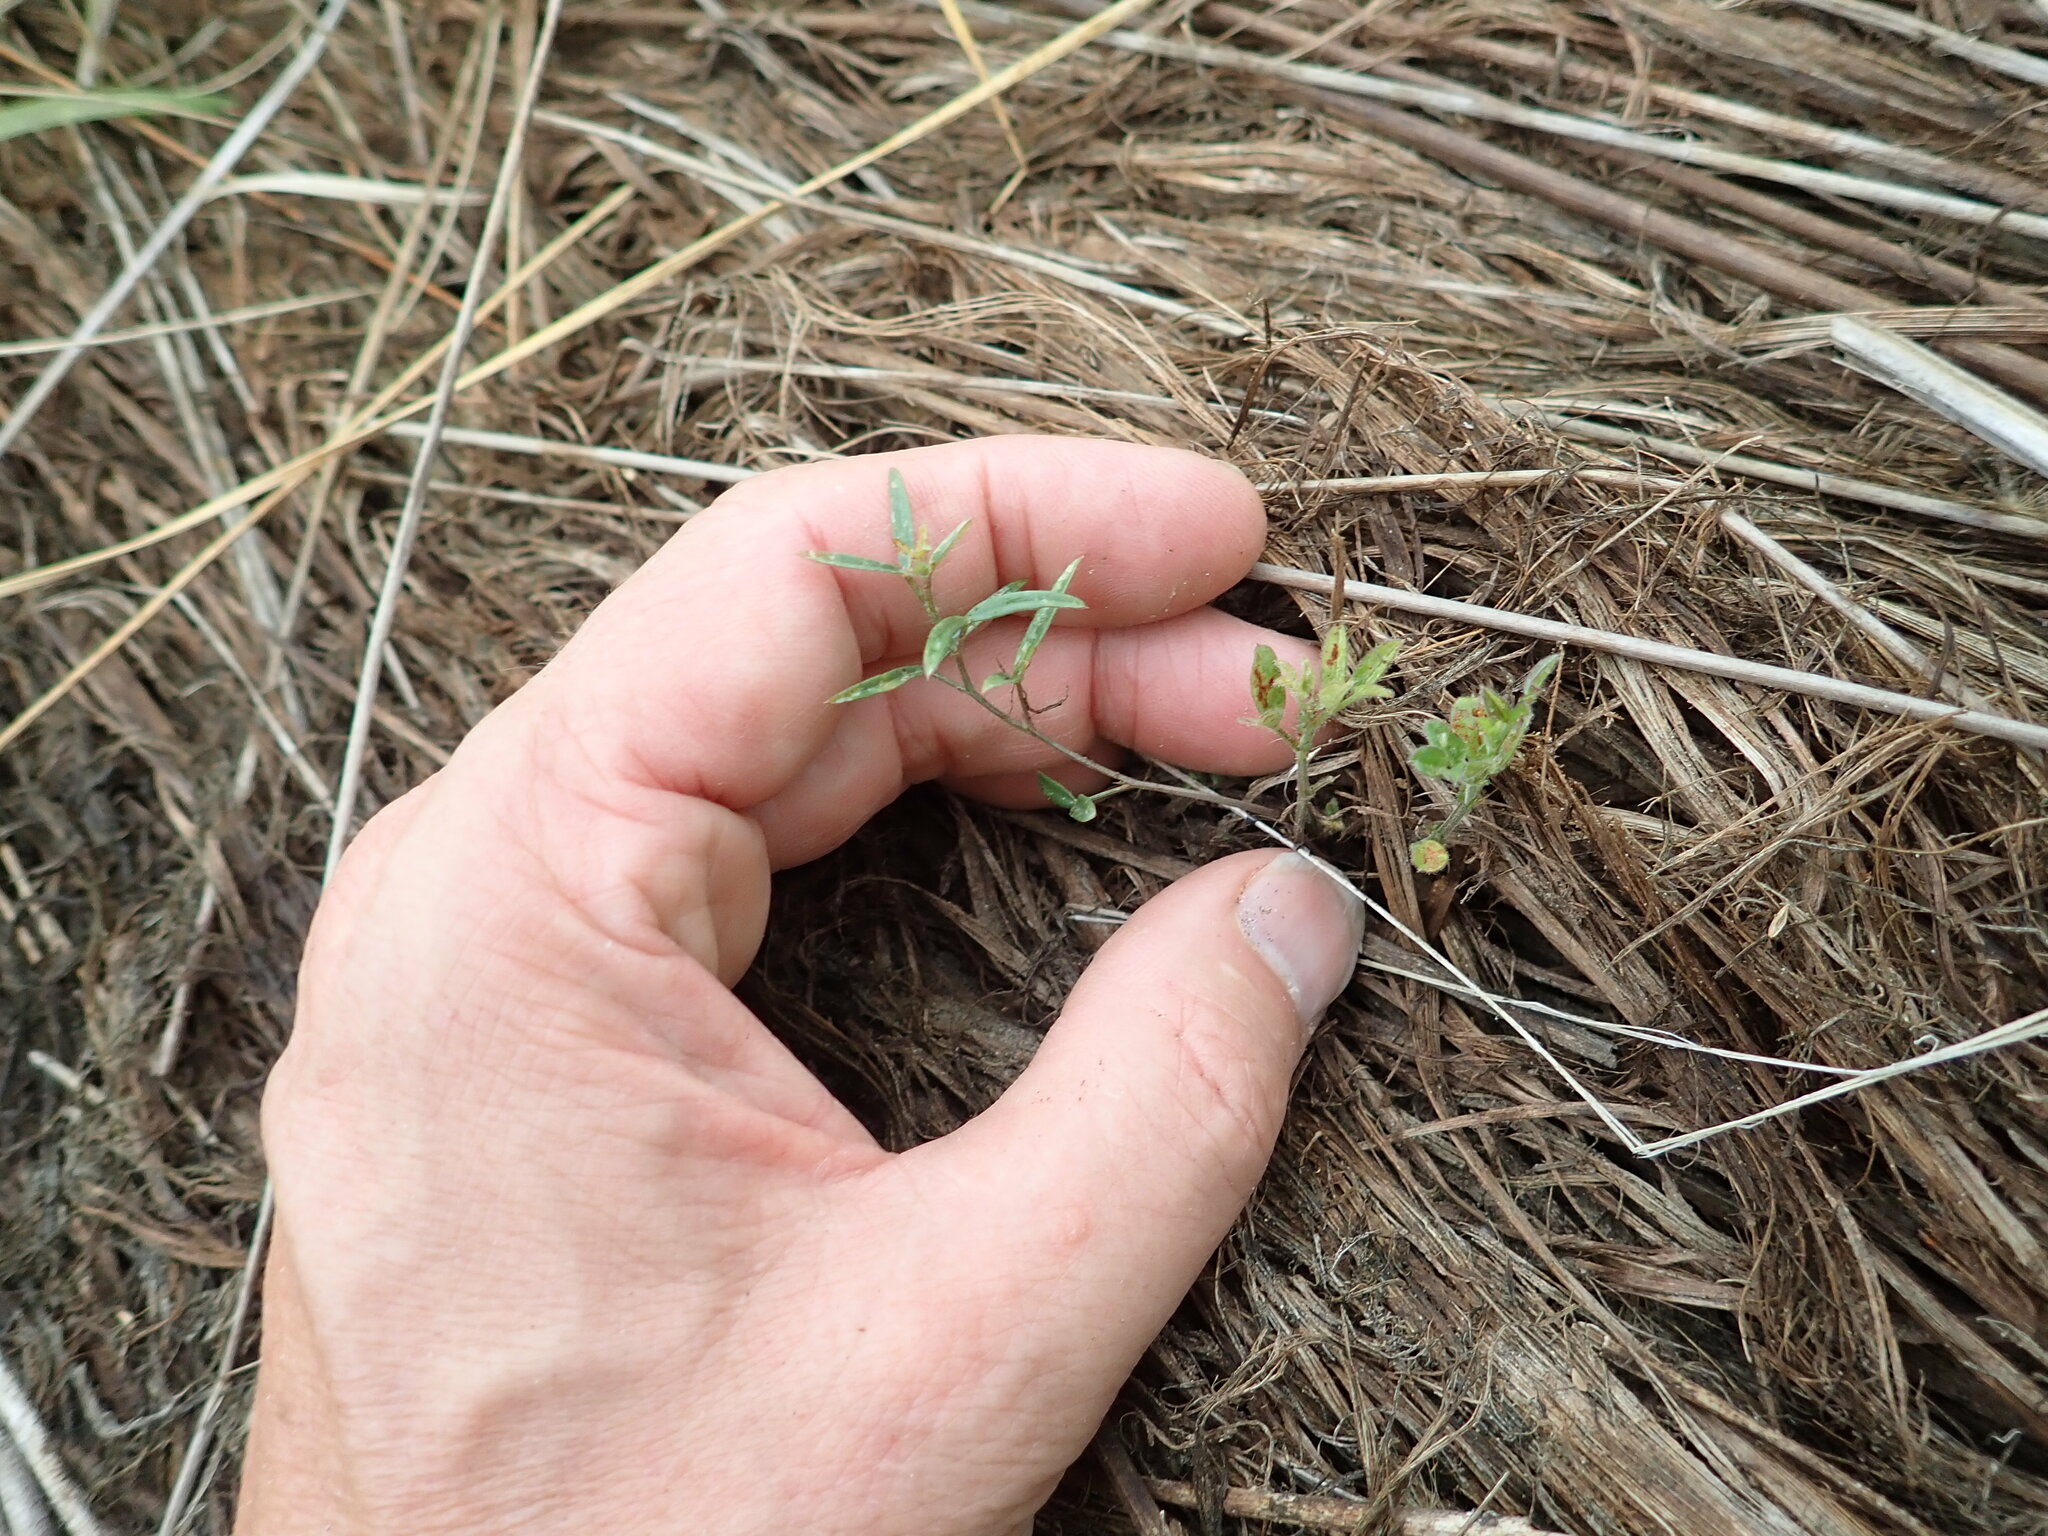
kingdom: Plantae
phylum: Tracheophyta
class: Magnoliopsida
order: Gentianales
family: Rubiaceae
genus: Coprosma
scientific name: Coprosma acerosa
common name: Sand coprosma
